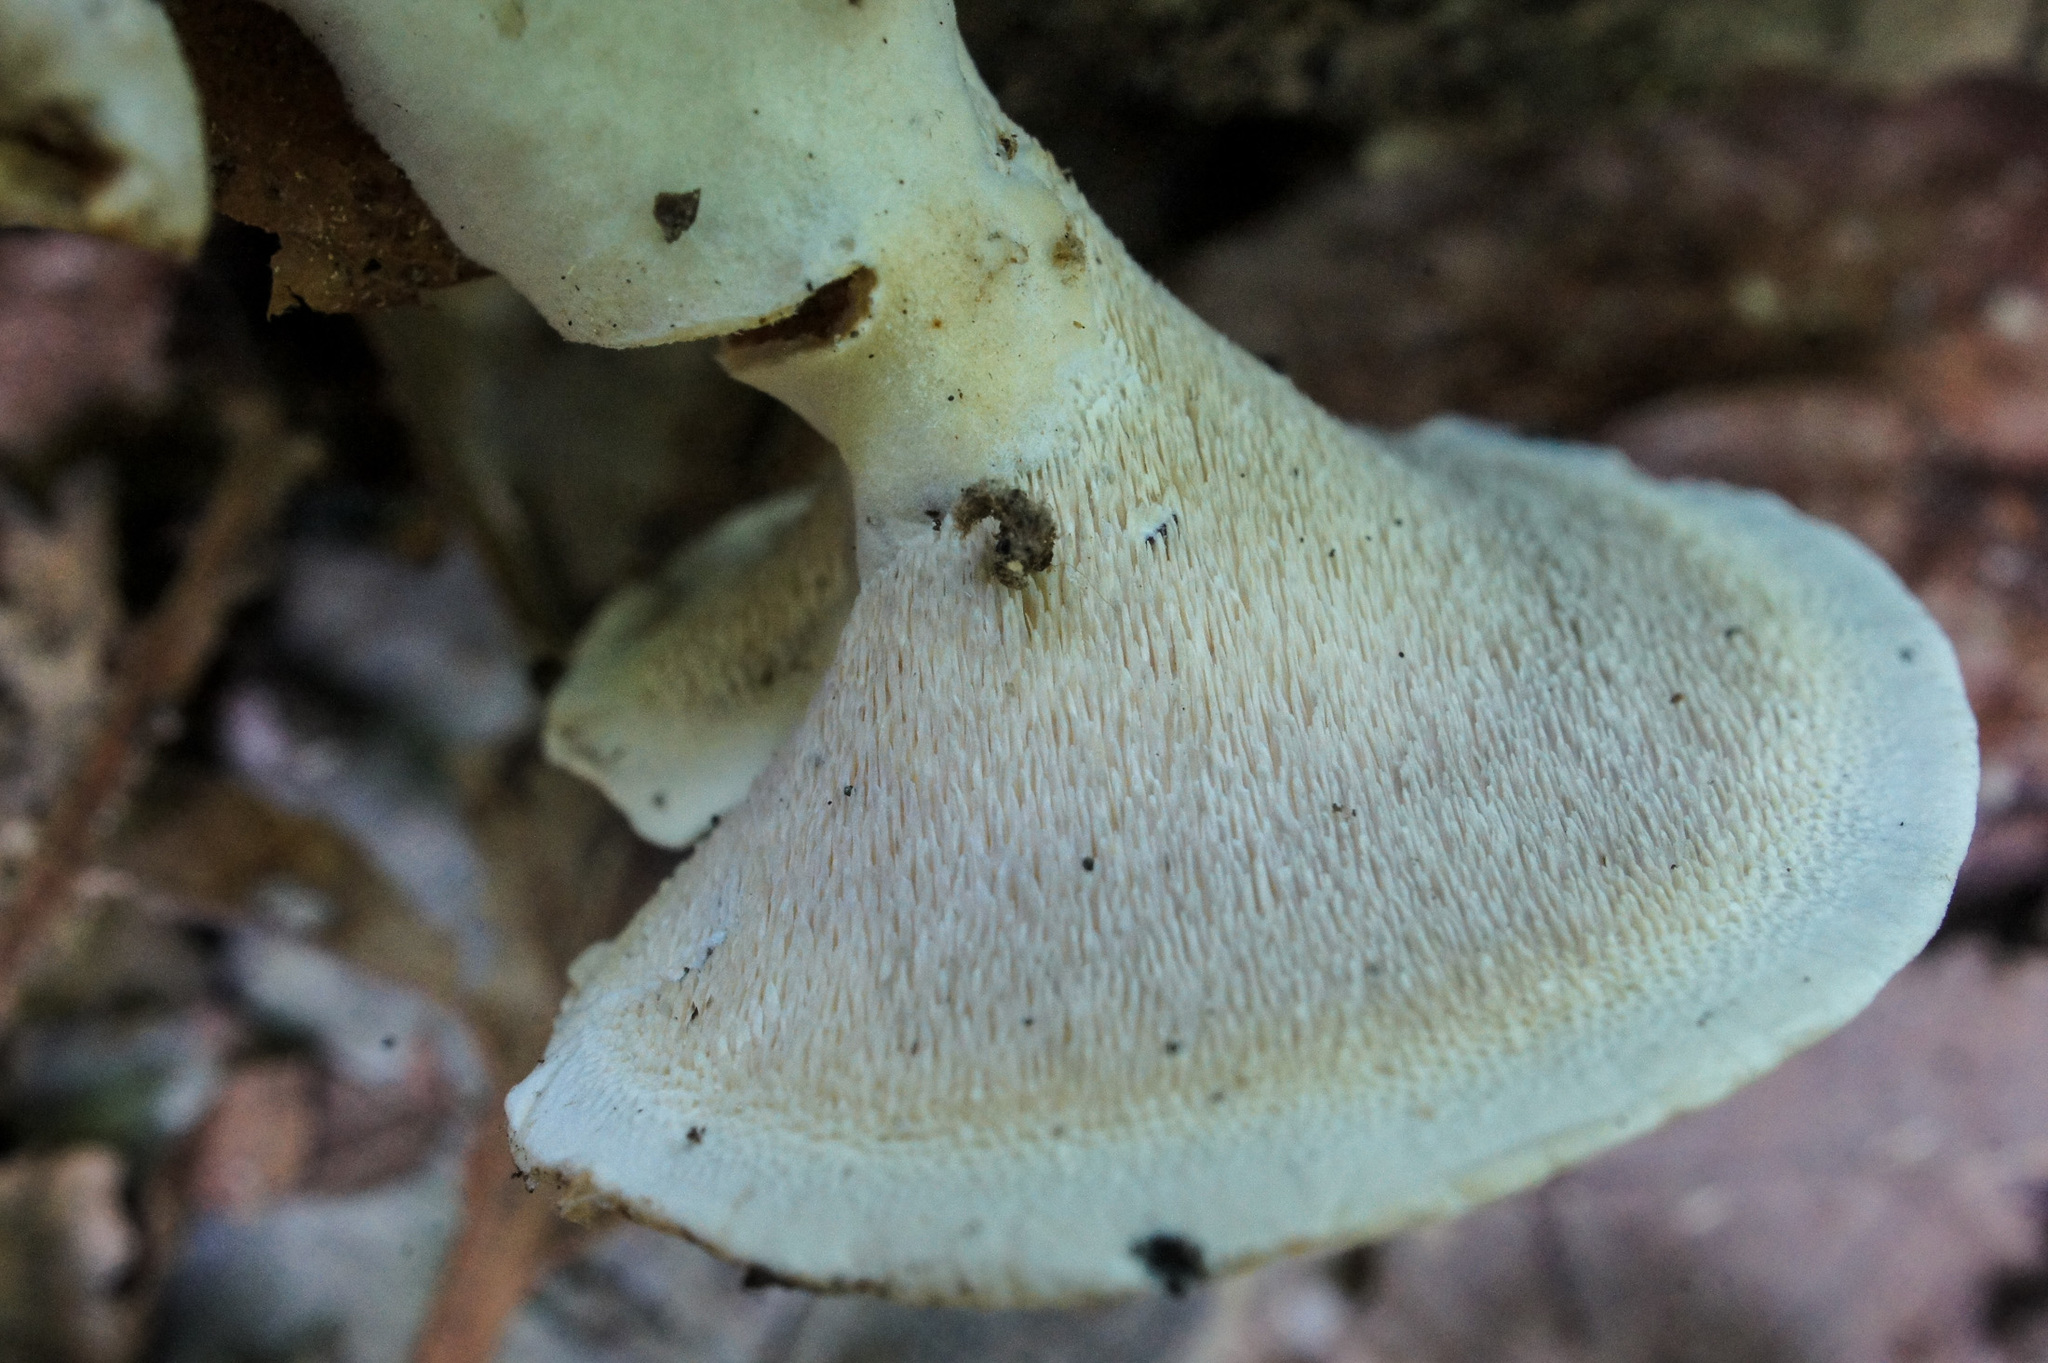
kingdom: Fungi
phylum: Basidiomycota
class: Agaricomycetes
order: Polyporales
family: Steccherinaceae
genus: Mycorrhaphium
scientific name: Mycorrhaphium adustum
